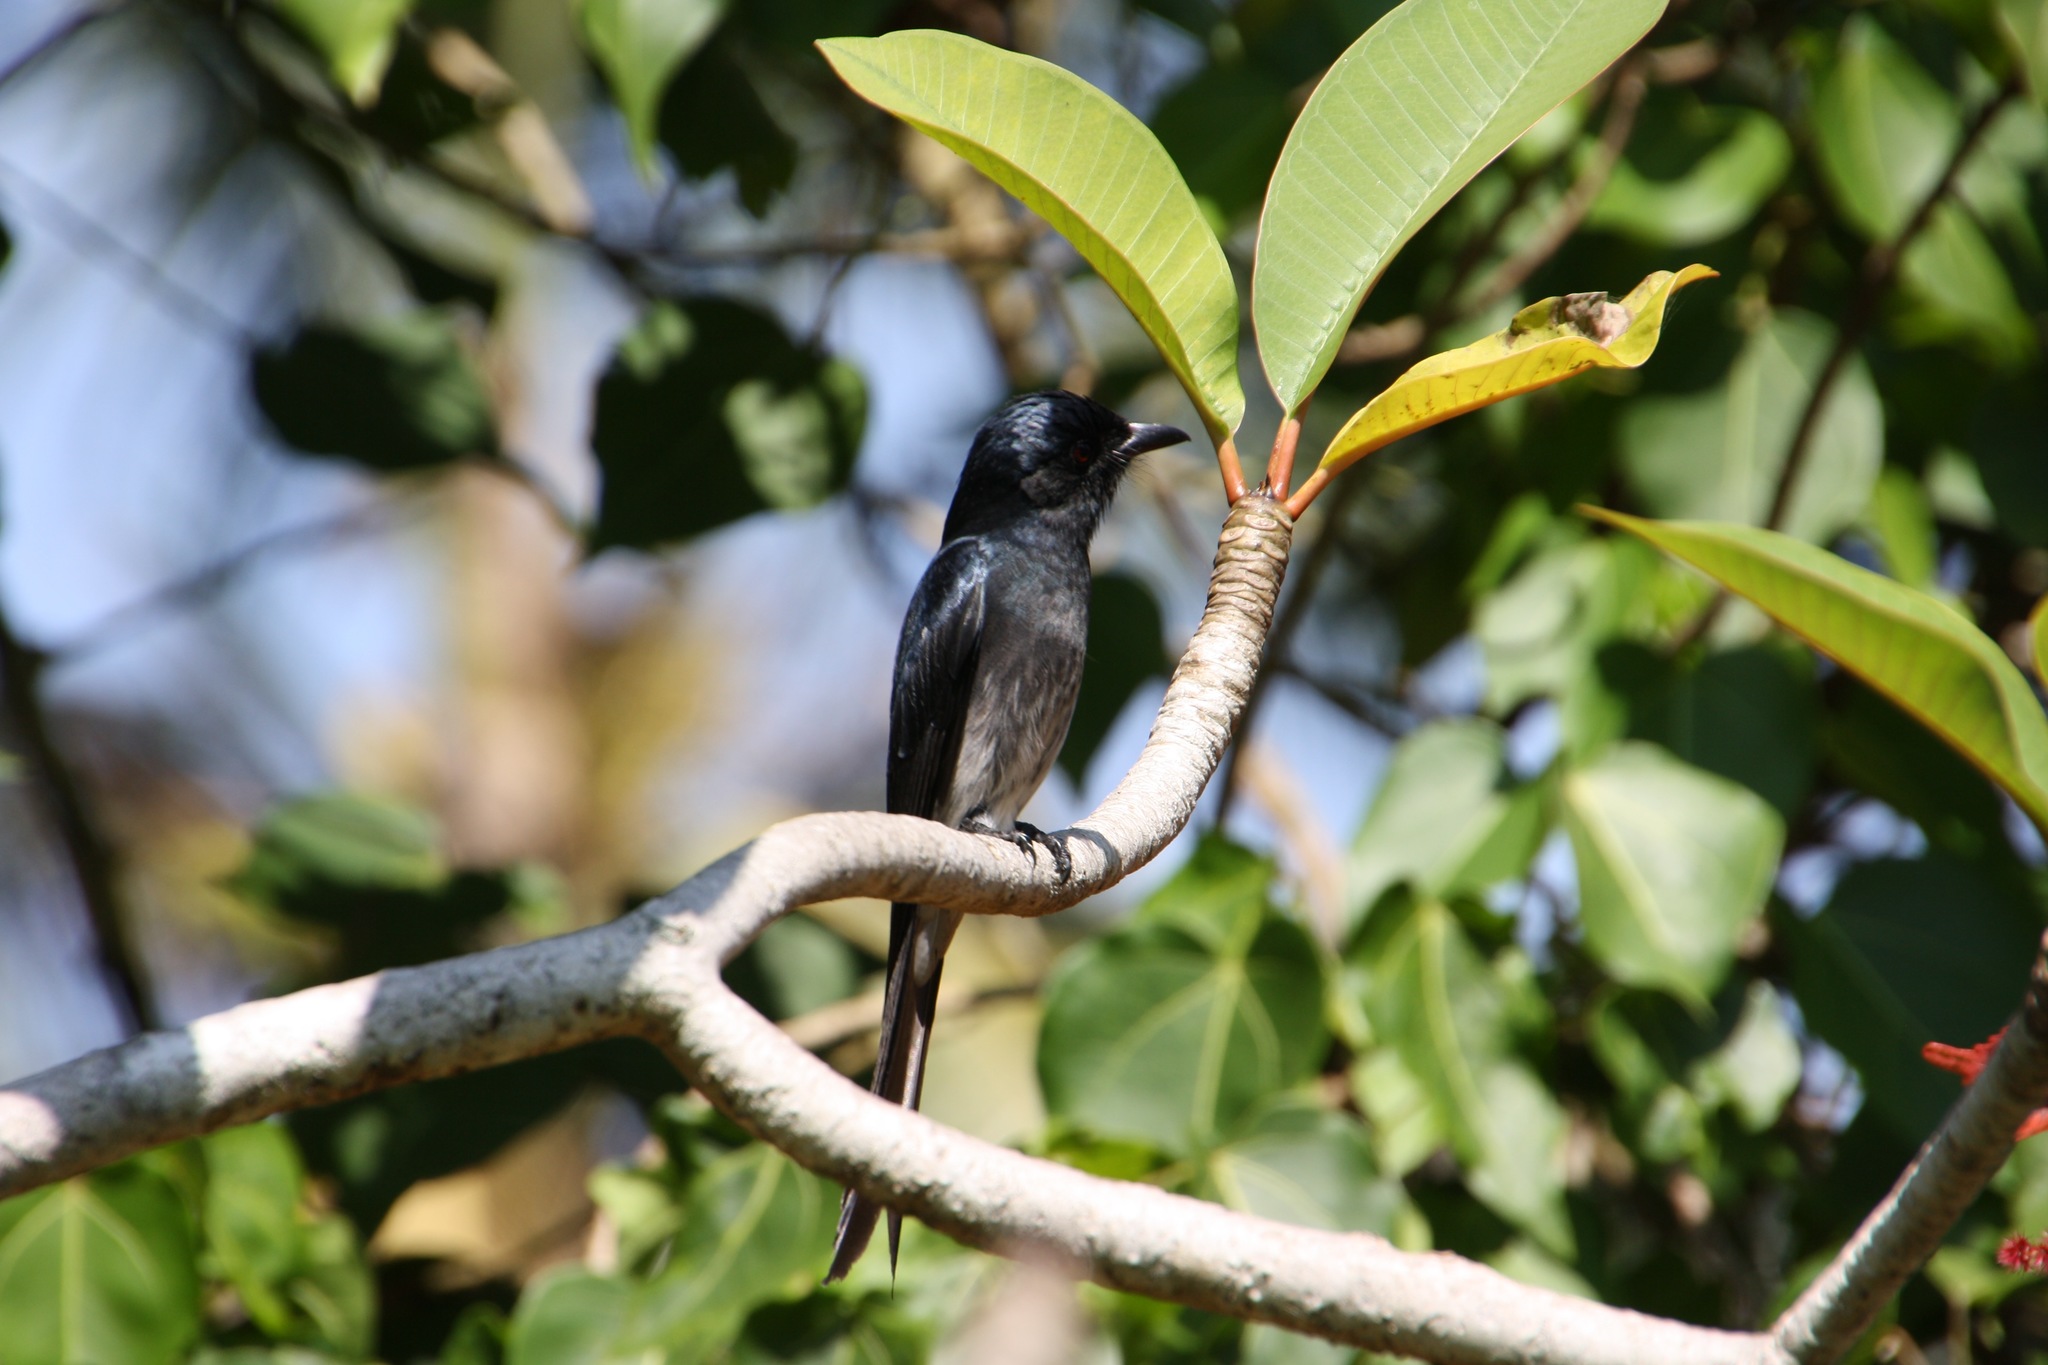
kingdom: Animalia
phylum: Chordata
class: Aves
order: Passeriformes
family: Dicruridae
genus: Dicrurus
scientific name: Dicrurus caerulescens
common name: White-bellied drongo
